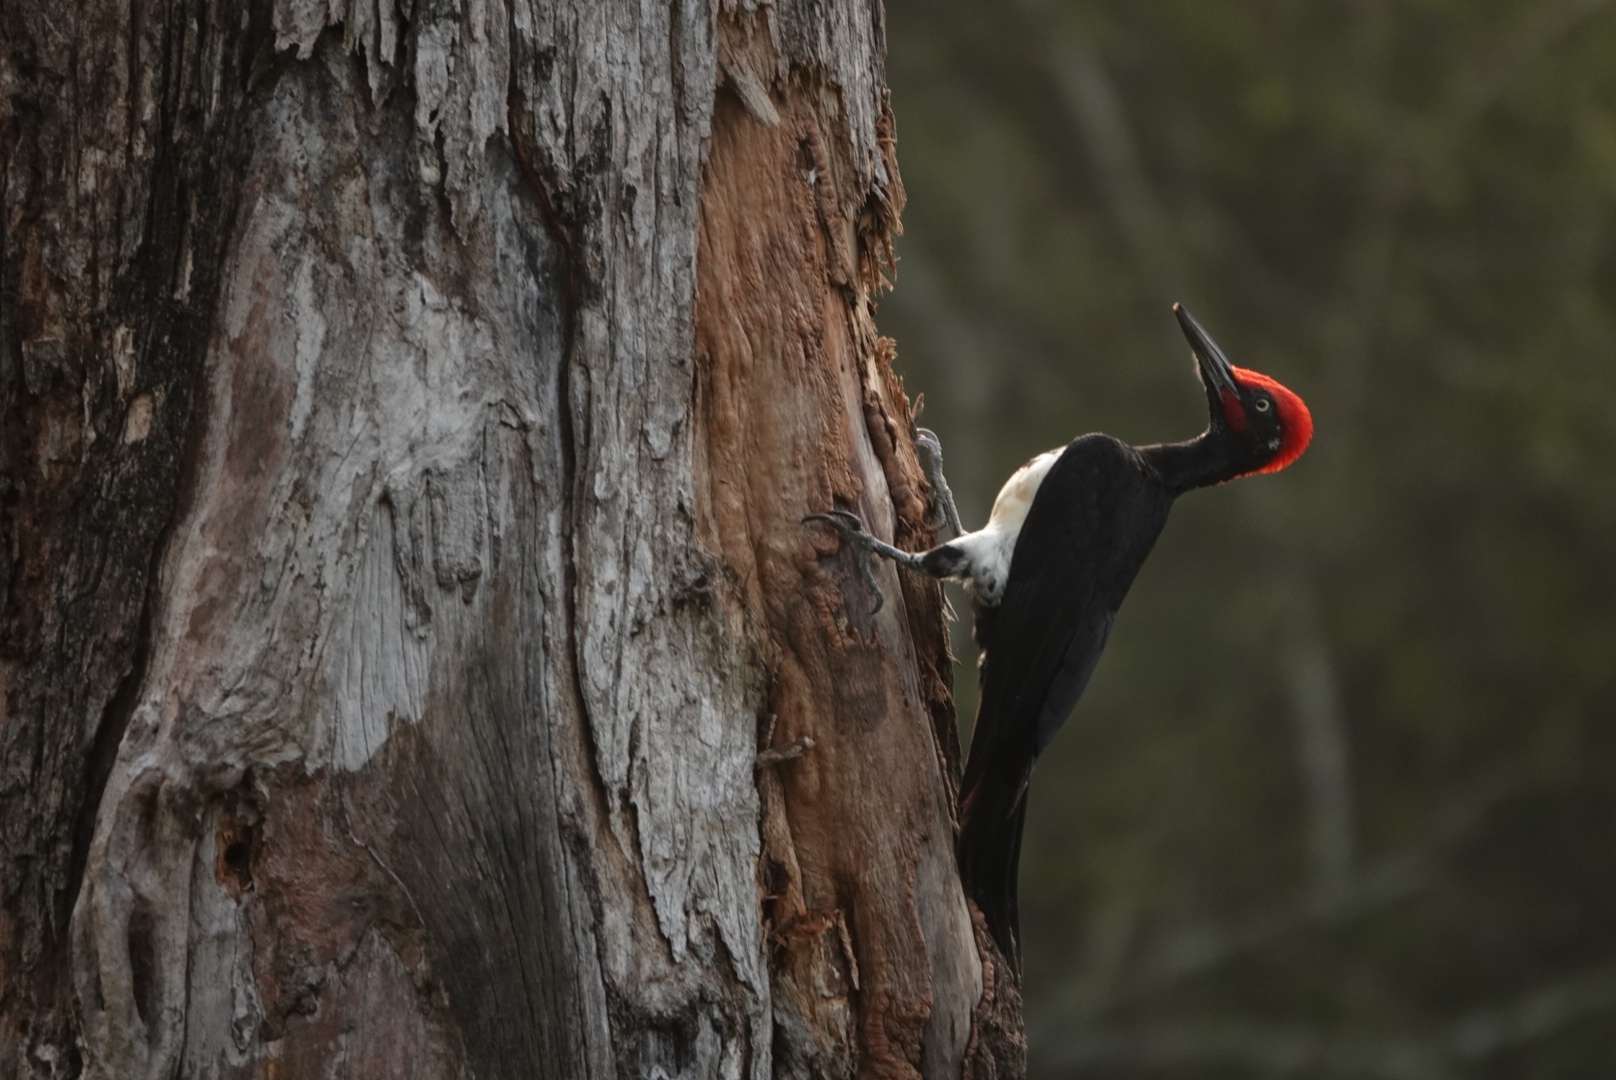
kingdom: Animalia
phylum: Chordata
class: Aves
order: Piciformes
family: Picidae
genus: Dryocopus
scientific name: Dryocopus javensis
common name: White-bellied woodpecker
